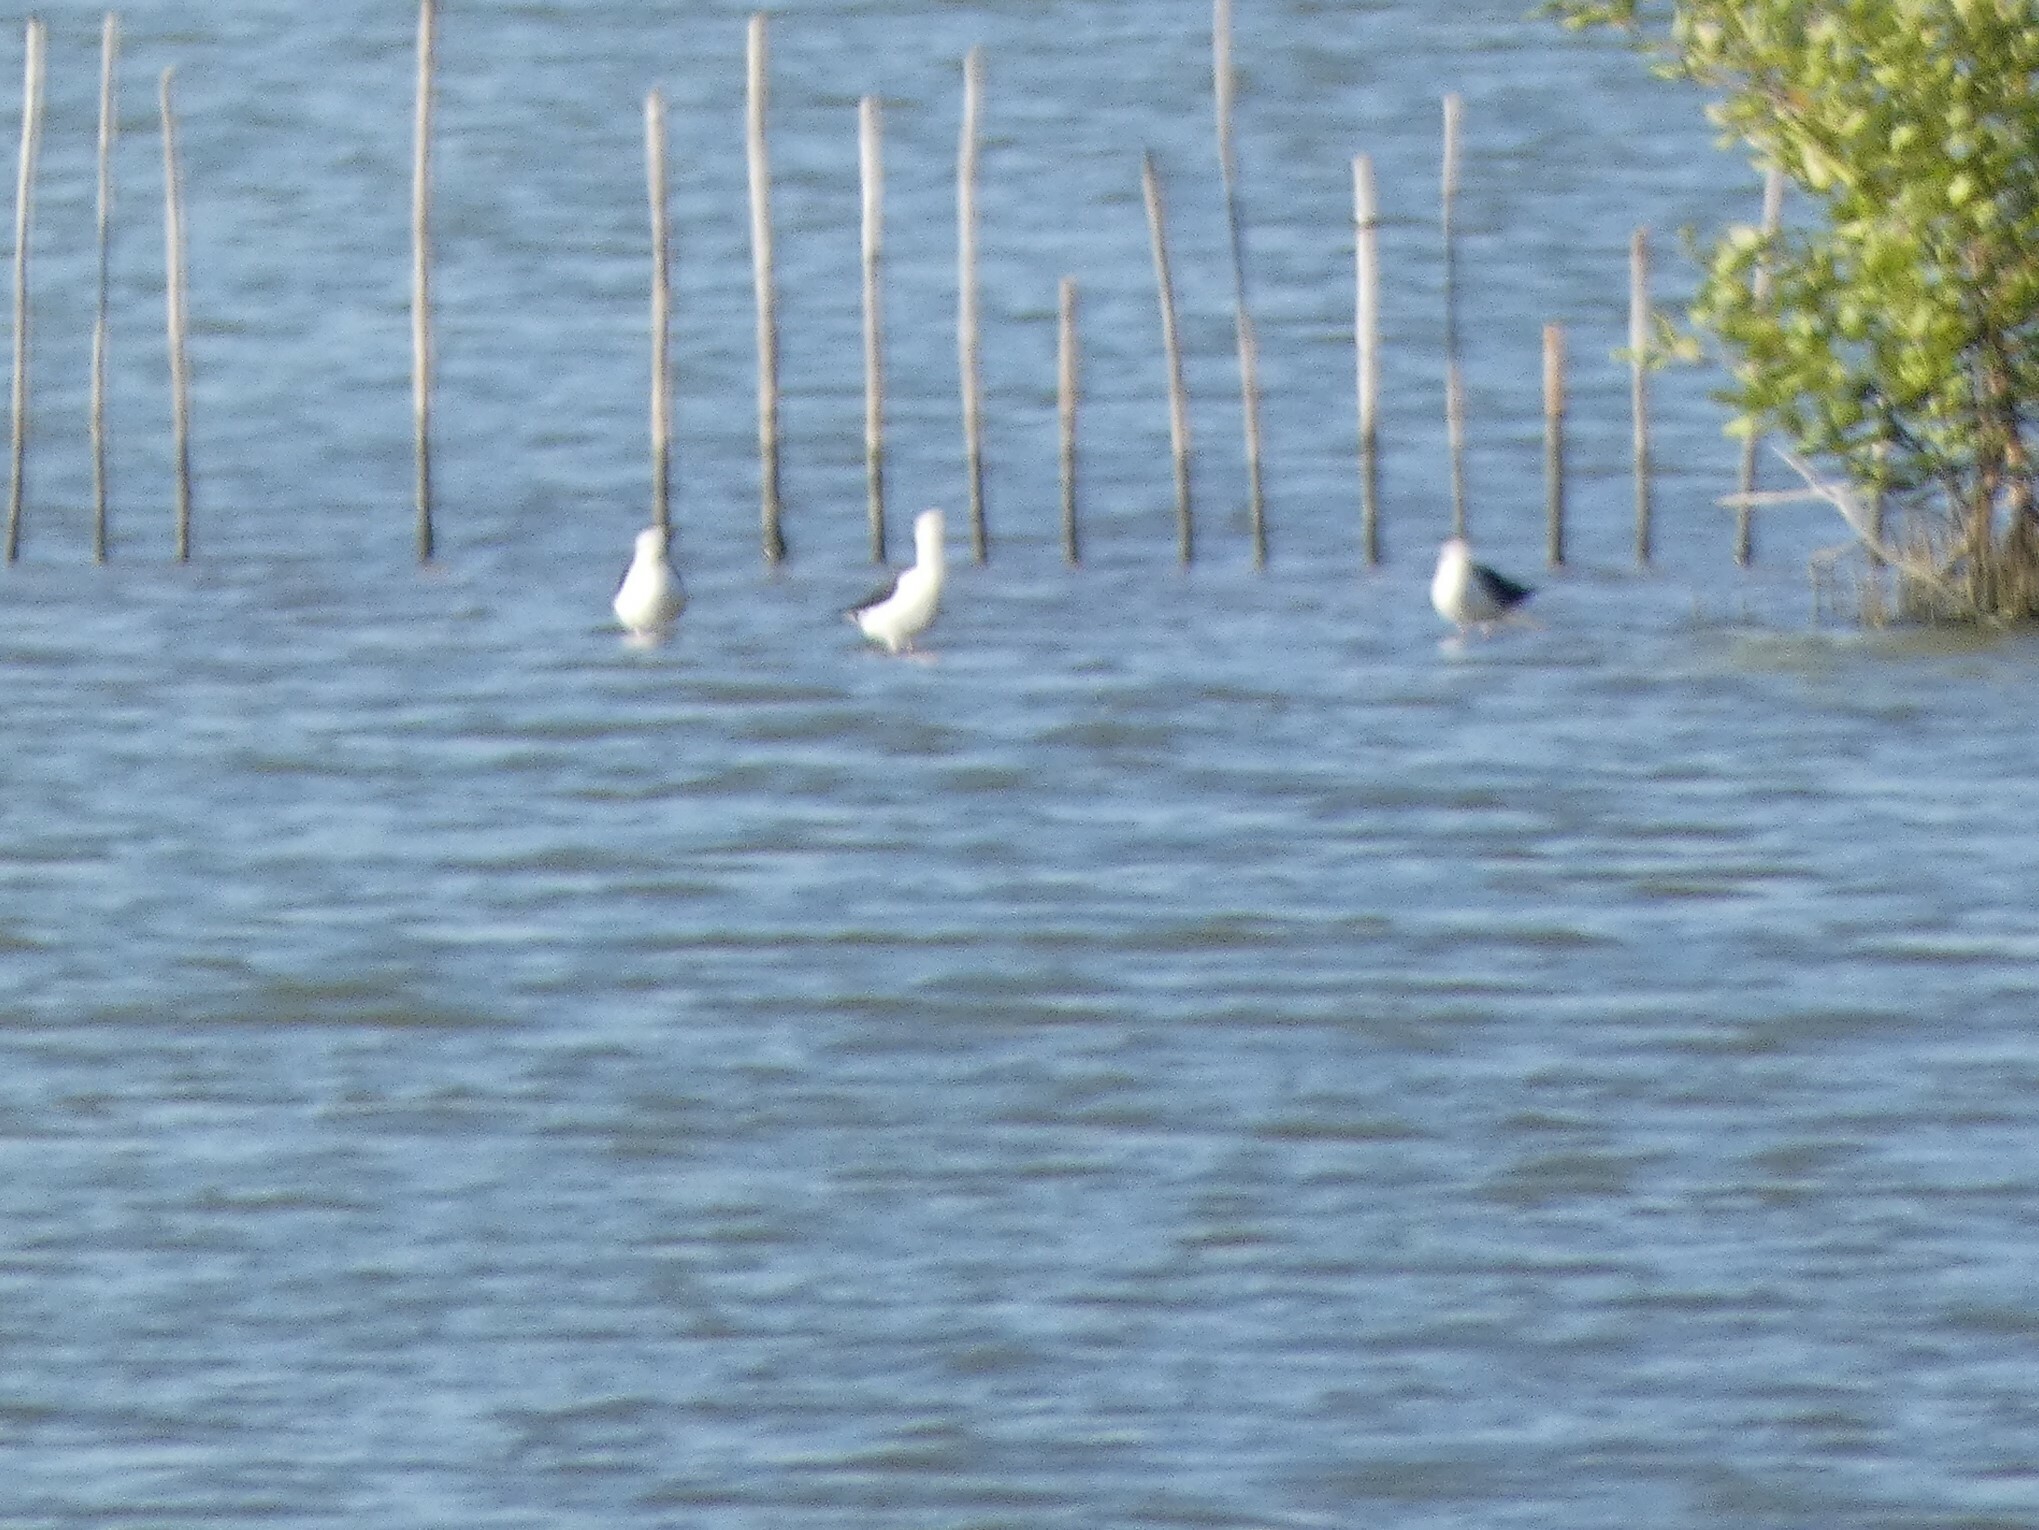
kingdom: Animalia
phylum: Chordata
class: Aves
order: Charadriiformes
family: Recurvirostridae
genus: Himantopus
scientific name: Himantopus himantopus
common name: Black-winged stilt
